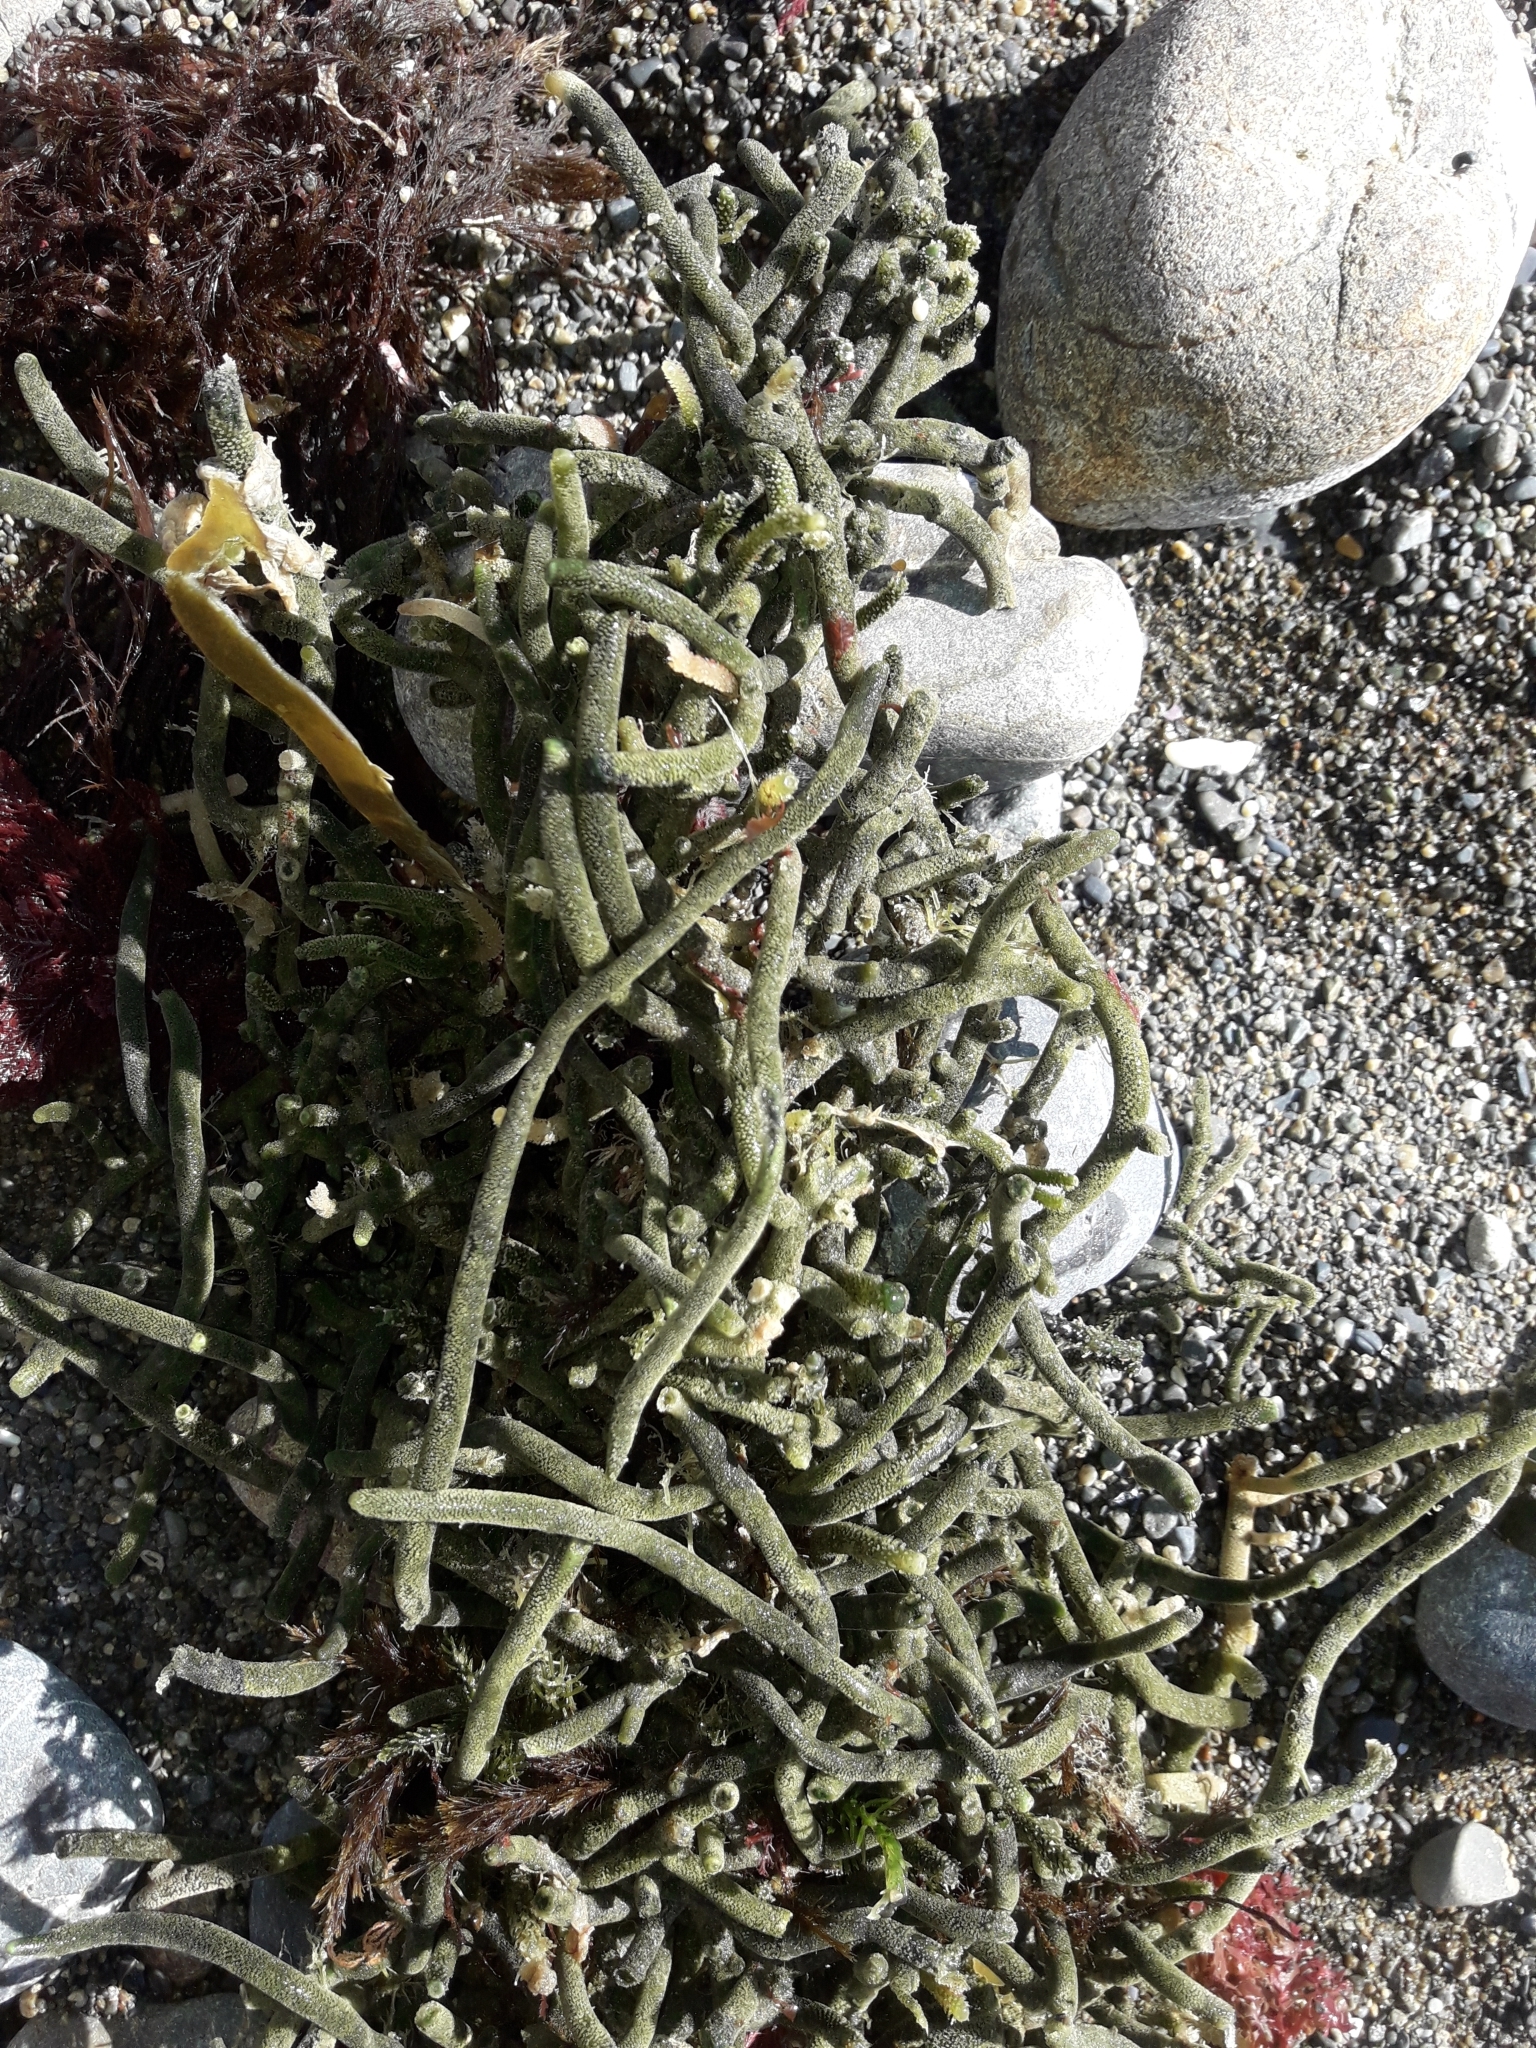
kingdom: Plantae
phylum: Chlorophyta
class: Ulvophyceae
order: Bryopsidales
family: Codiaceae
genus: Codium
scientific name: Codium fragile
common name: Dead man's fingers
